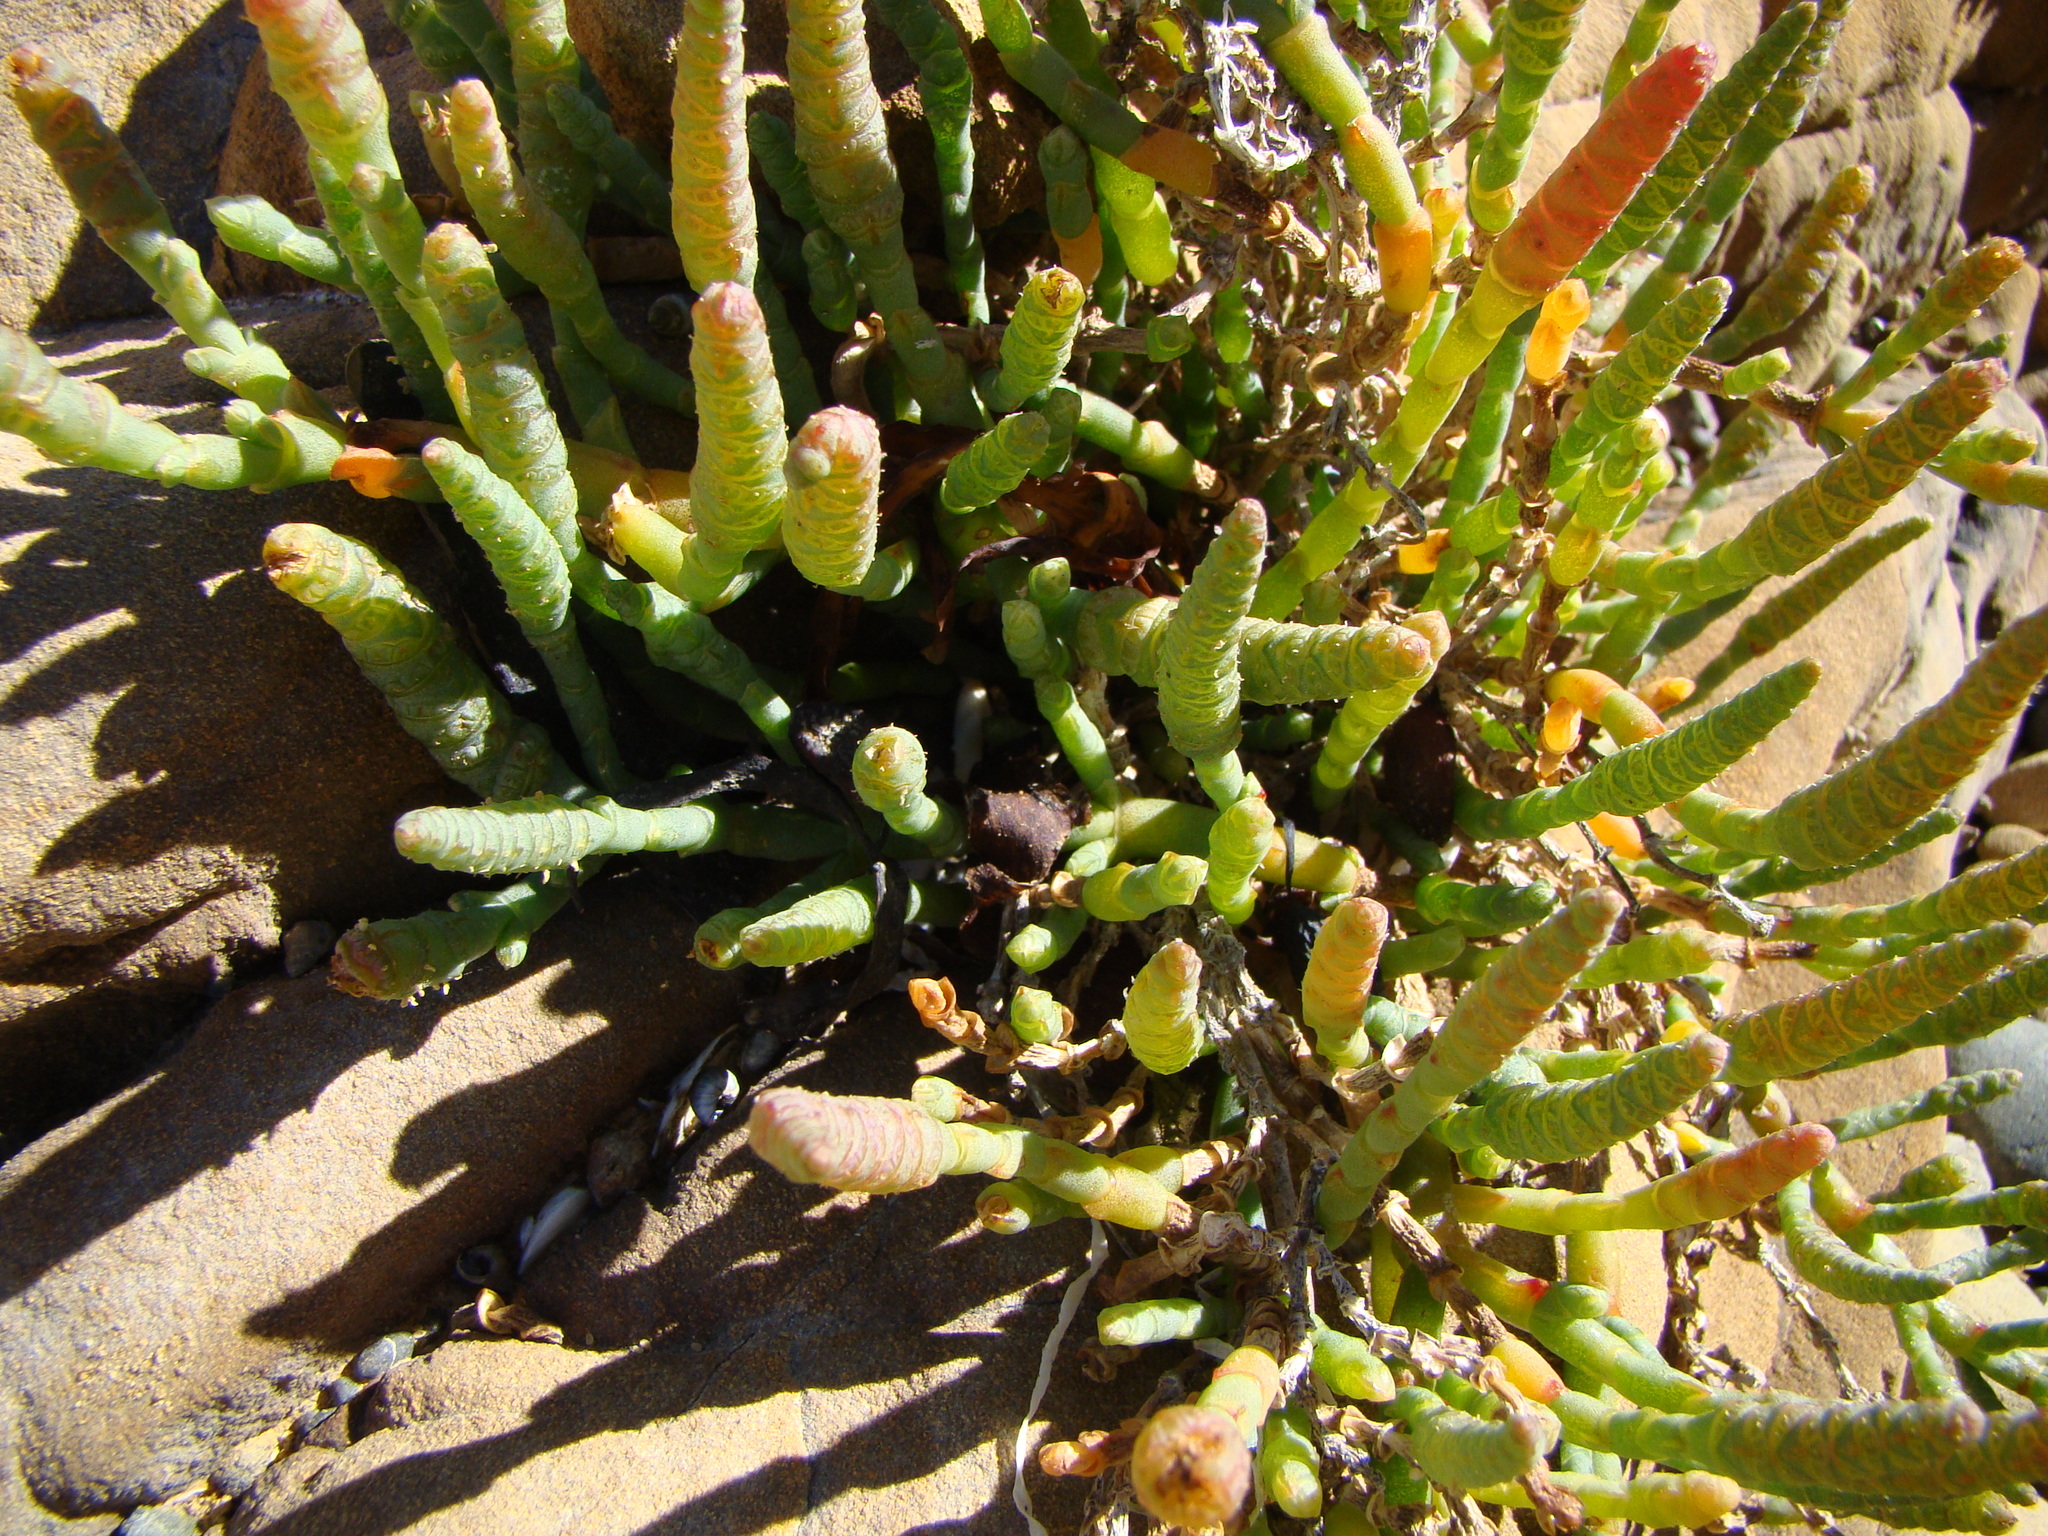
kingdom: Plantae
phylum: Tracheophyta
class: Magnoliopsida
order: Caryophyllales
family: Amaranthaceae
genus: Salicornia
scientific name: Salicornia quinqueflora
